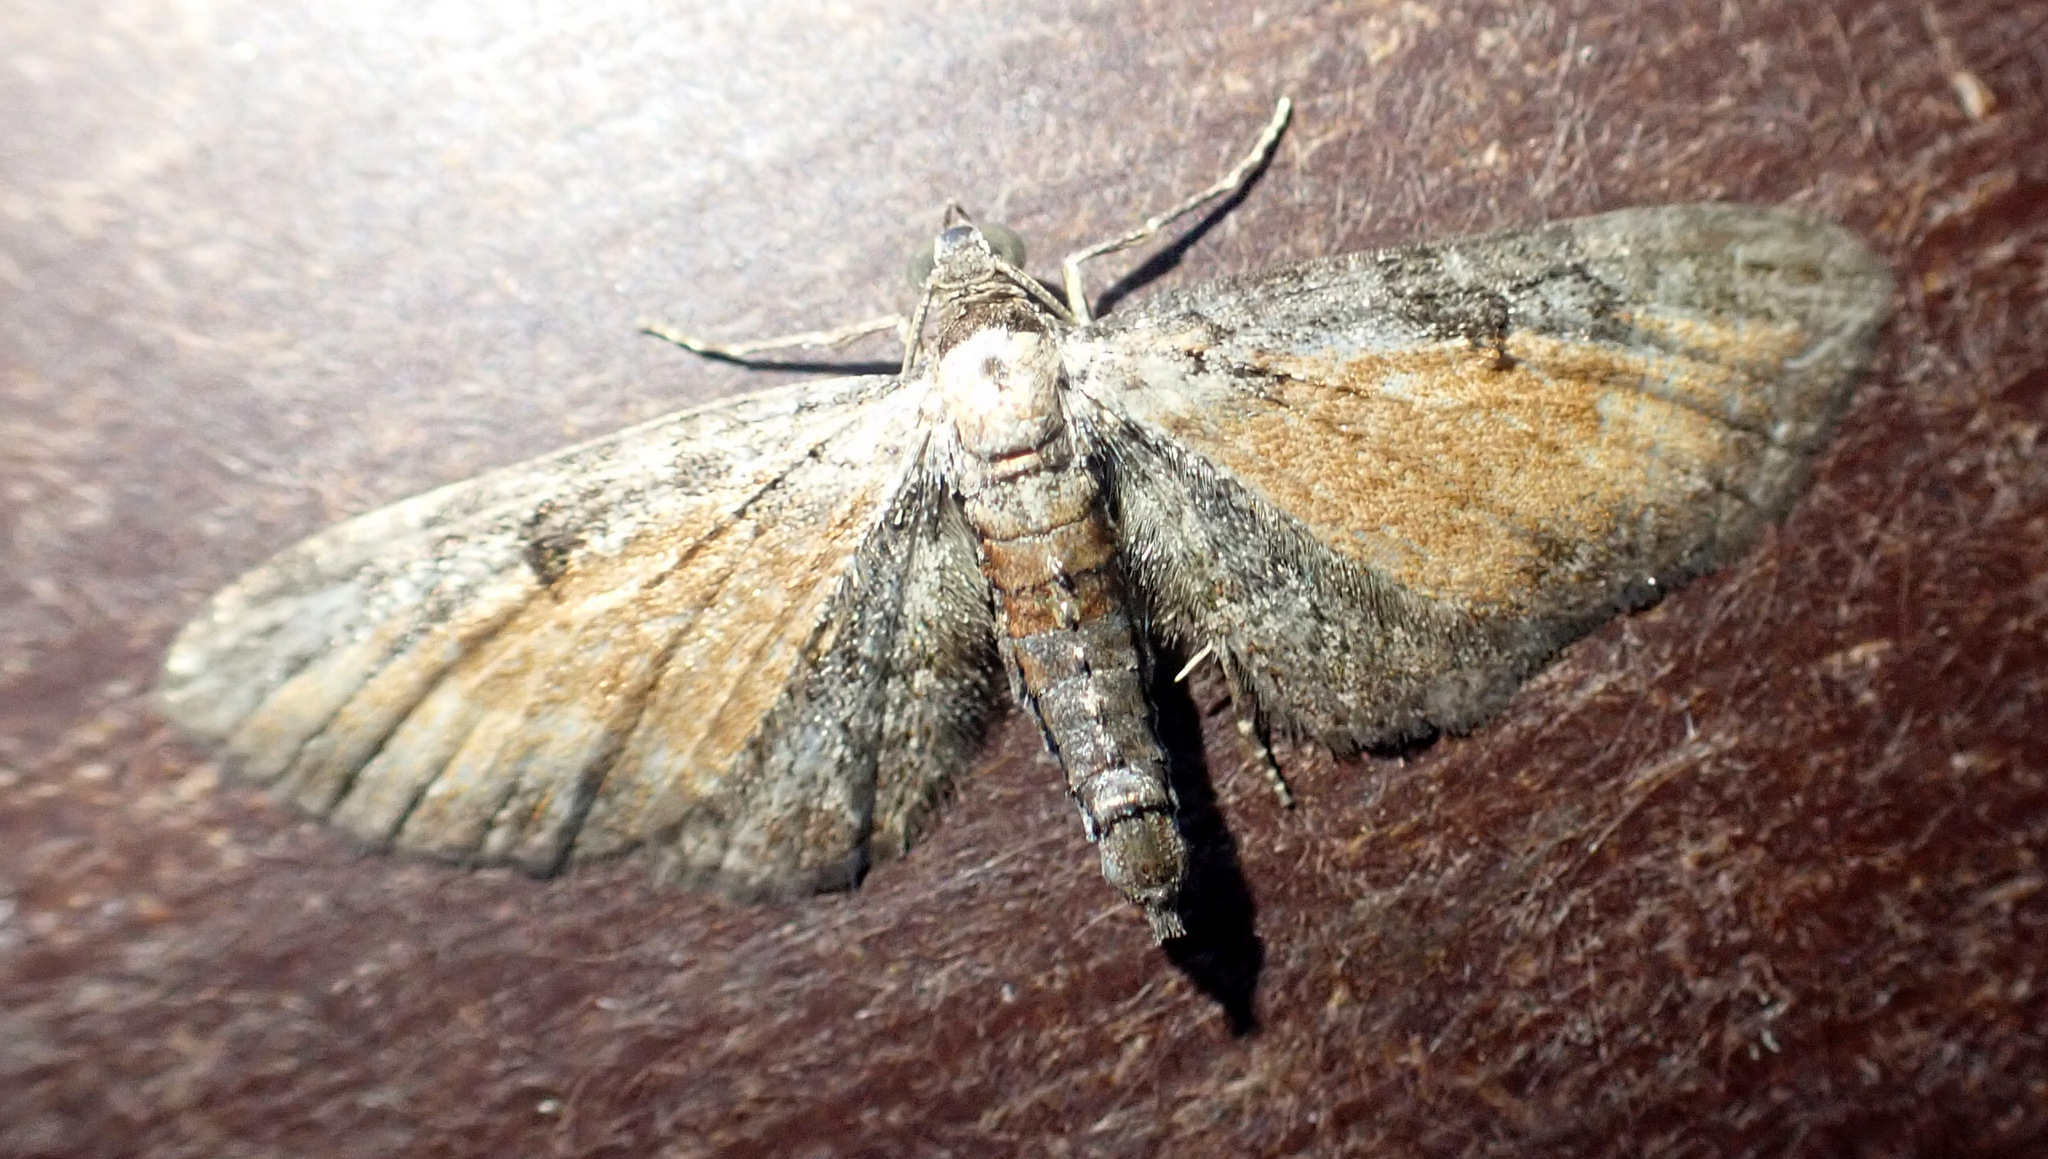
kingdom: Animalia
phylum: Arthropoda
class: Insecta
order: Lepidoptera
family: Geometridae
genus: Eupithecia
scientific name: Eupithecia icterata
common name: Tawny speckled pug
